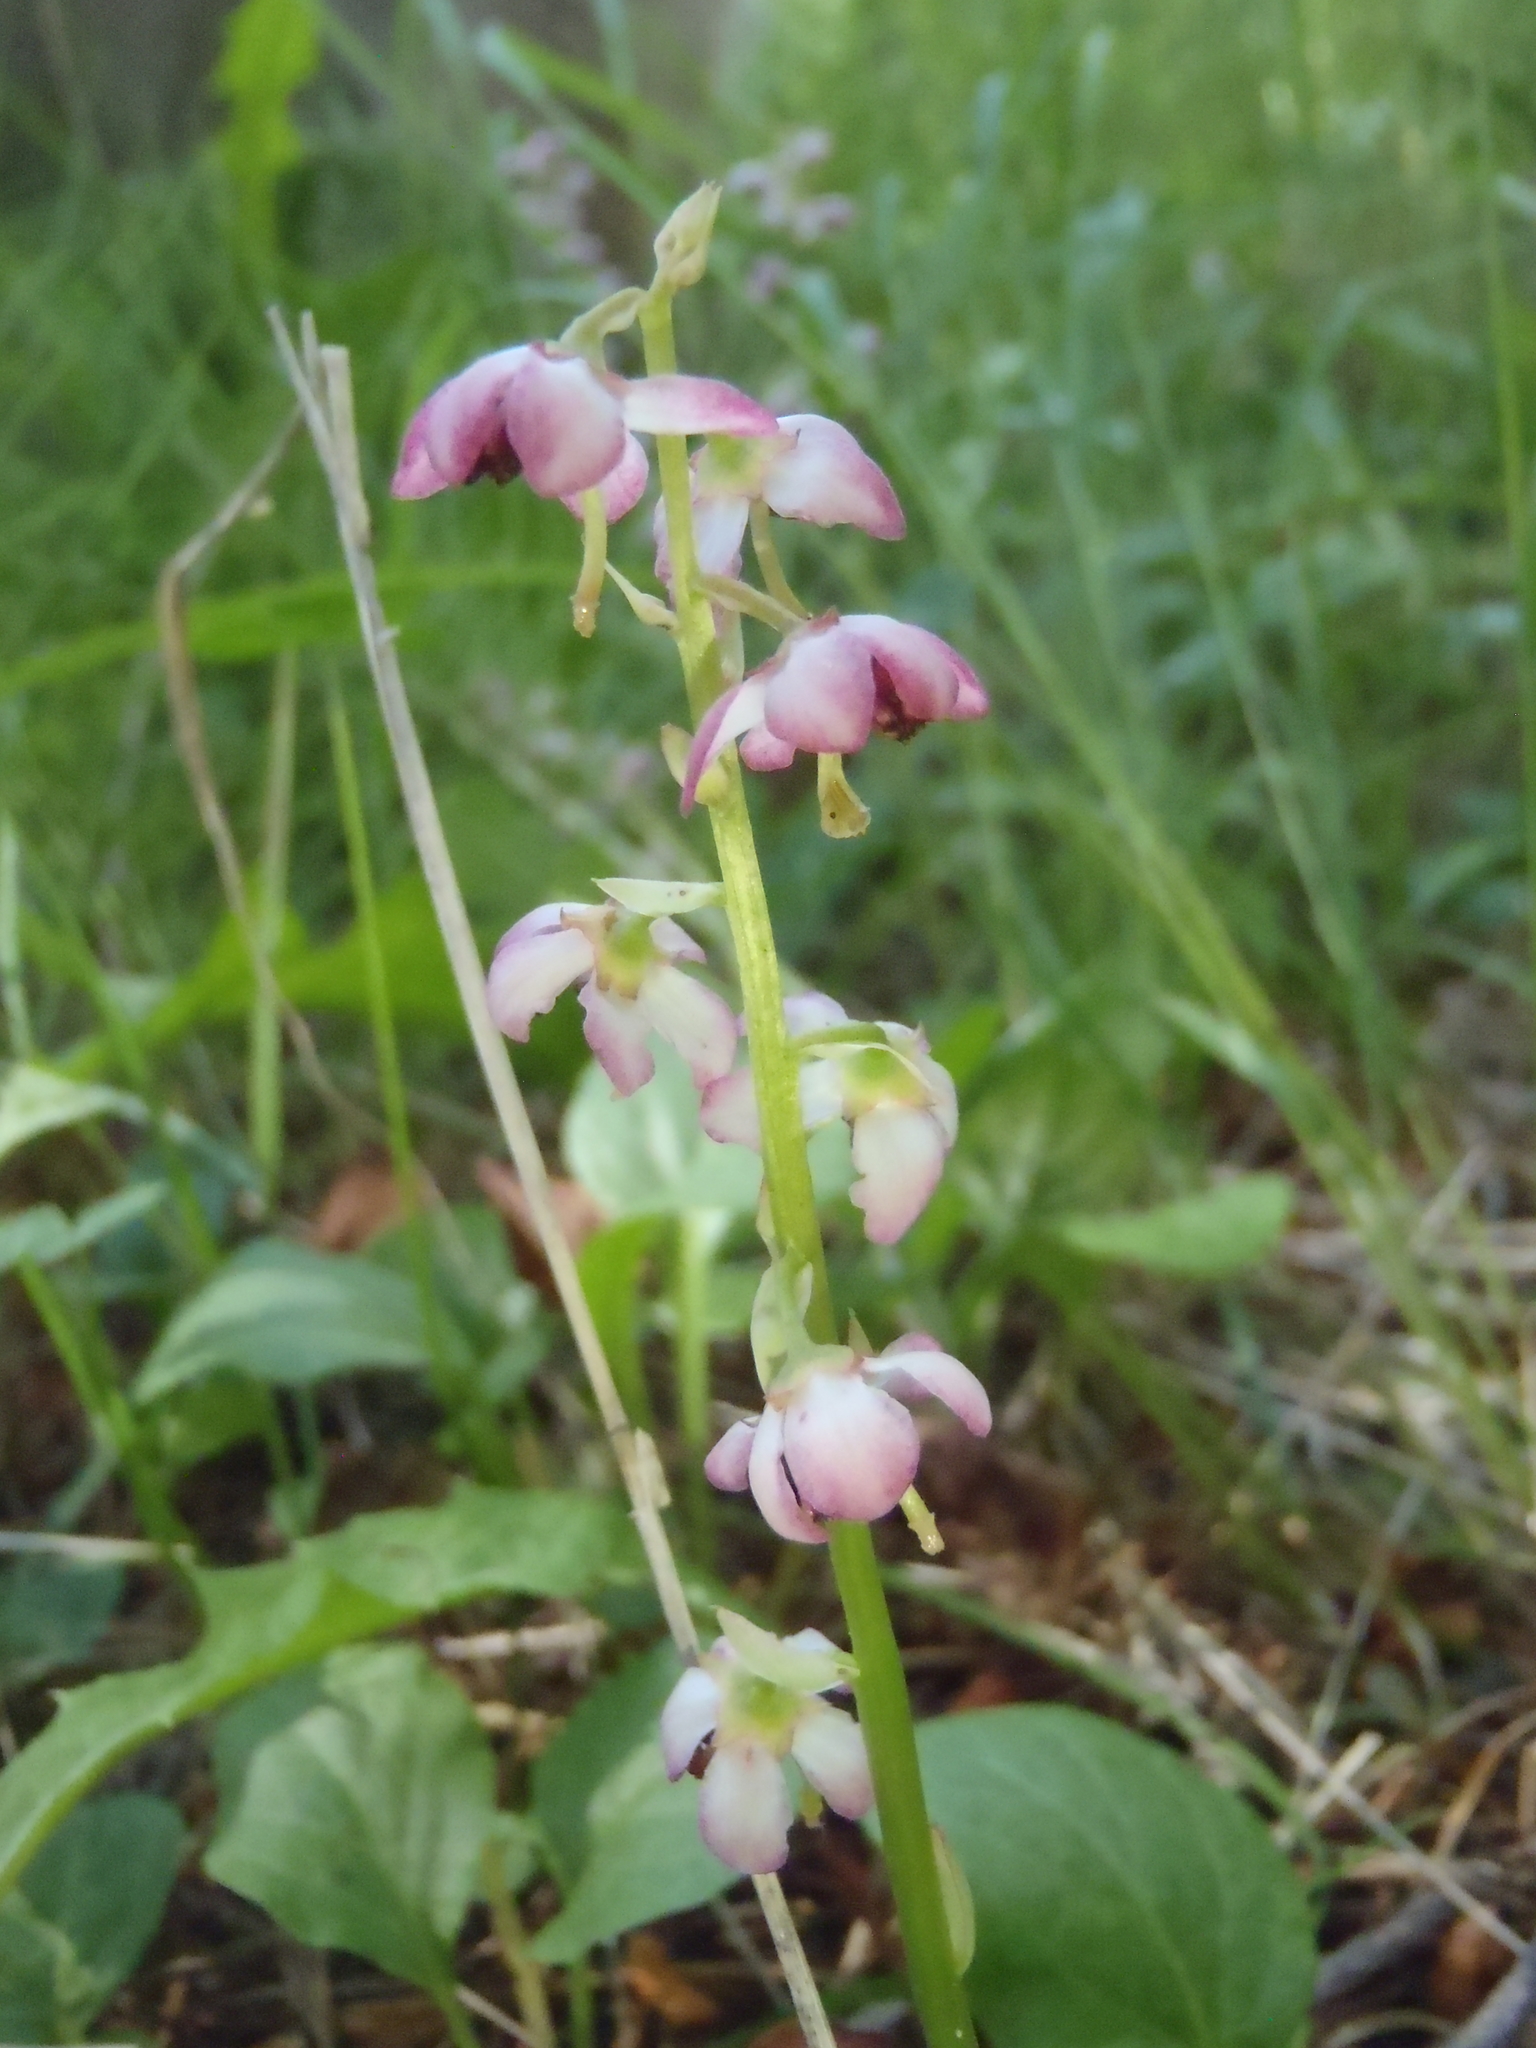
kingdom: Plantae
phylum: Tracheophyta
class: Magnoliopsida
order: Ericales
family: Ericaceae
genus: Pyrola
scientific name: Pyrola asarifolia
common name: Bog wintergreen
